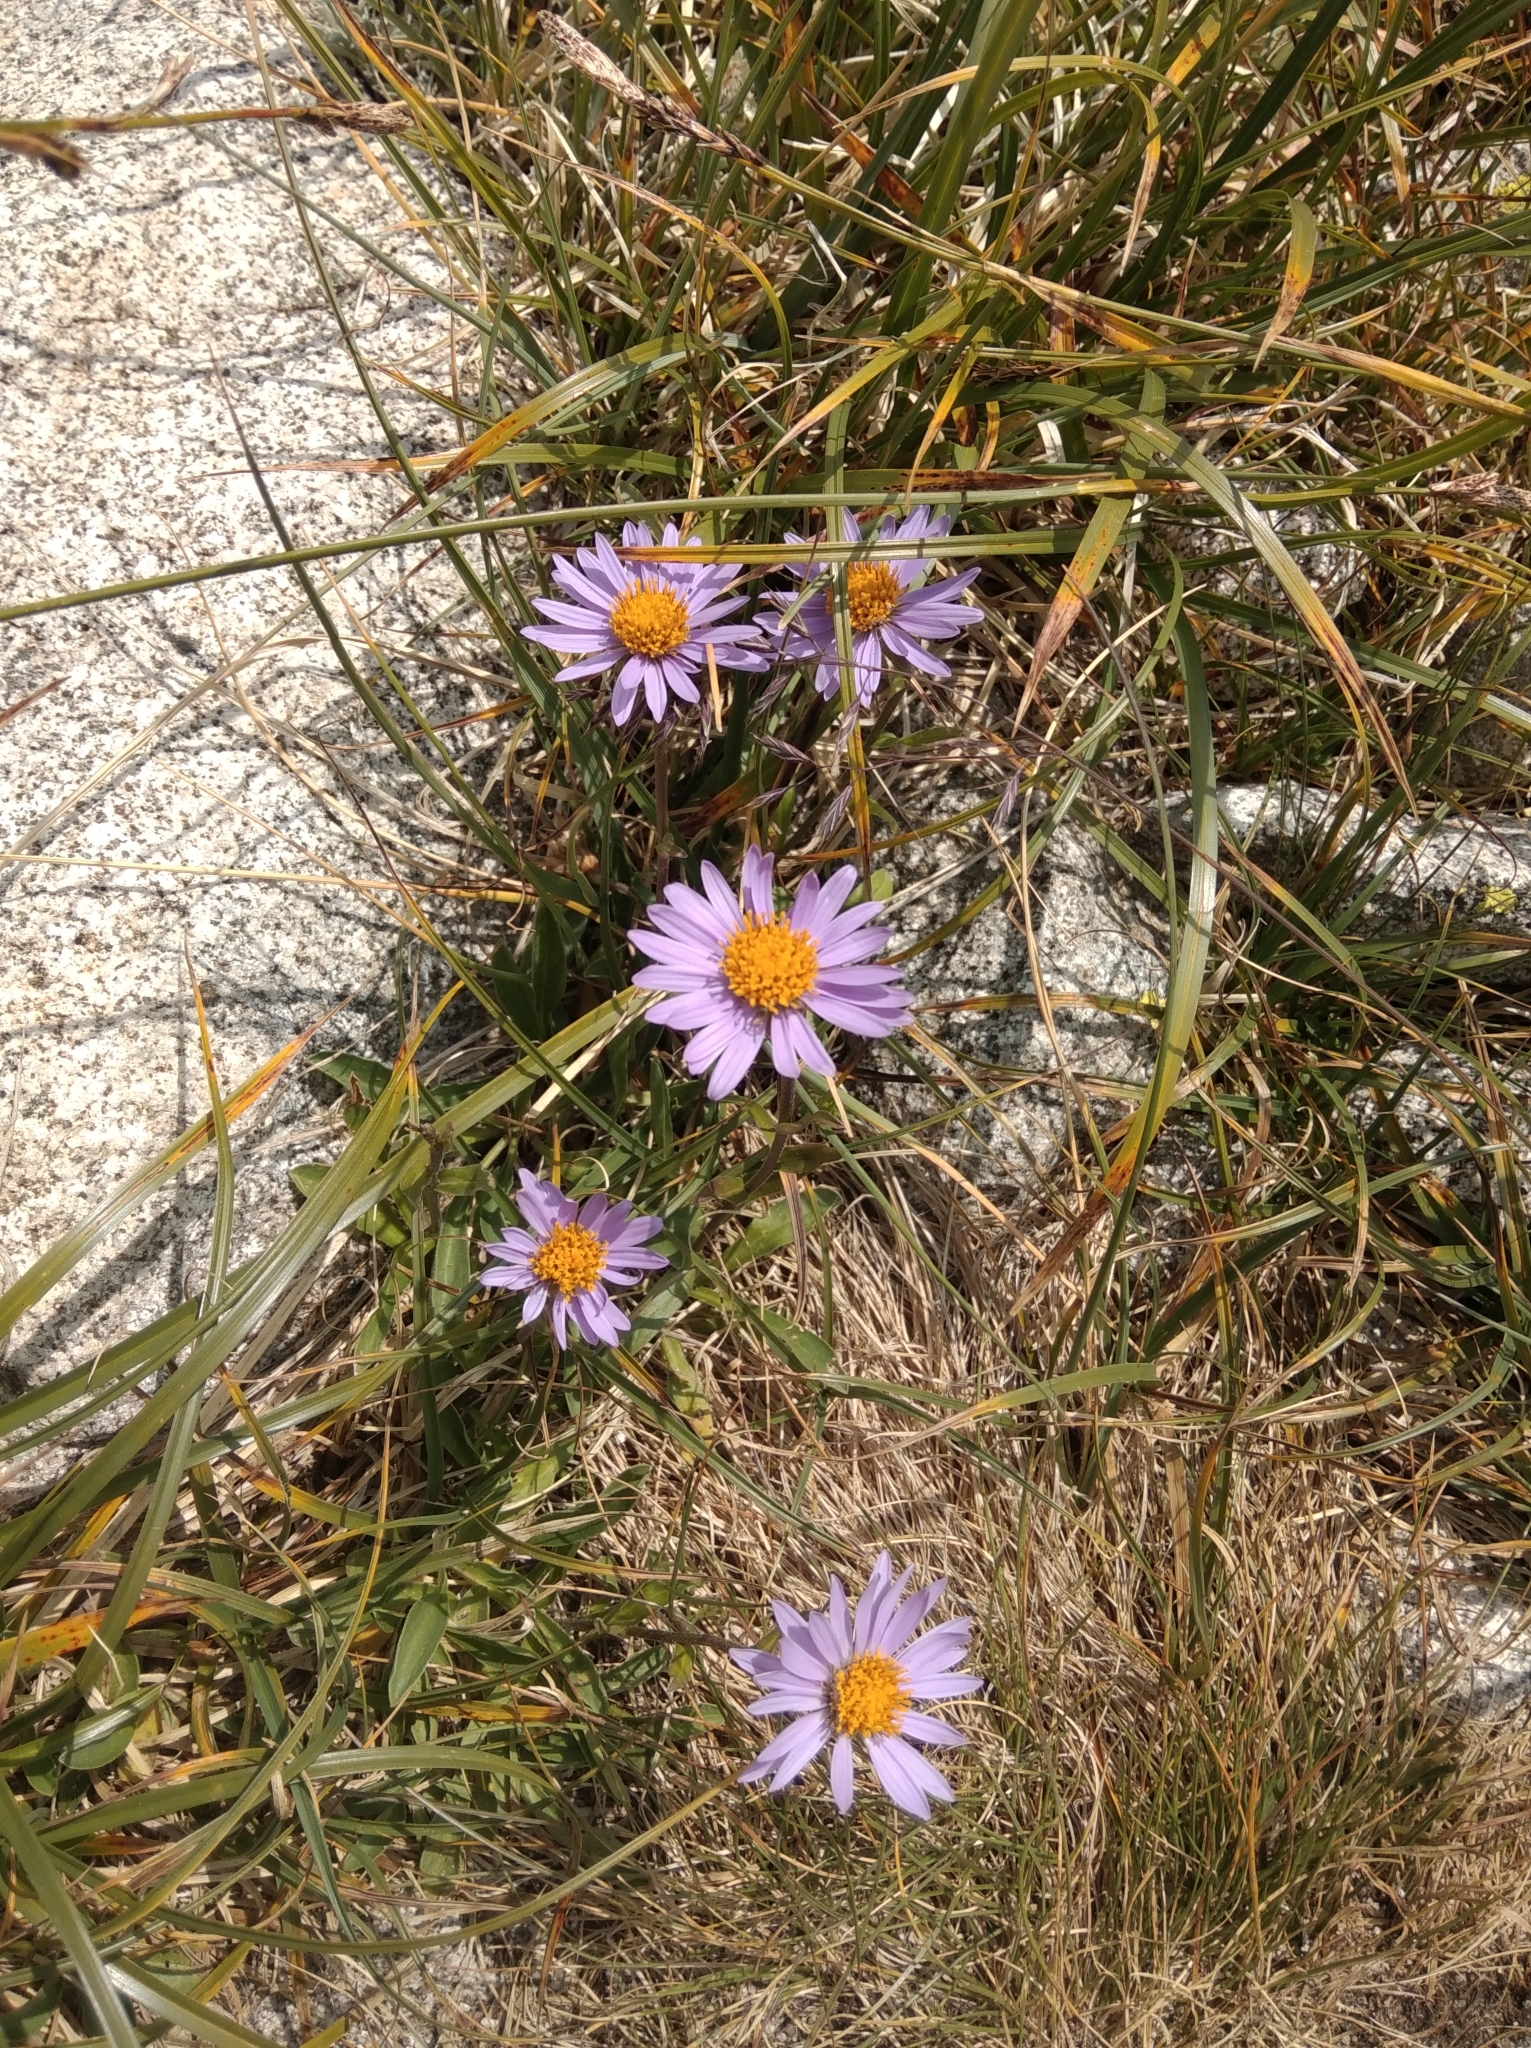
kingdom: Plantae
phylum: Tracheophyta
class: Magnoliopsida
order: Asterales
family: Asteraceae
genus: Aster
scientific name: Aster alpinus
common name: Alpine aster
